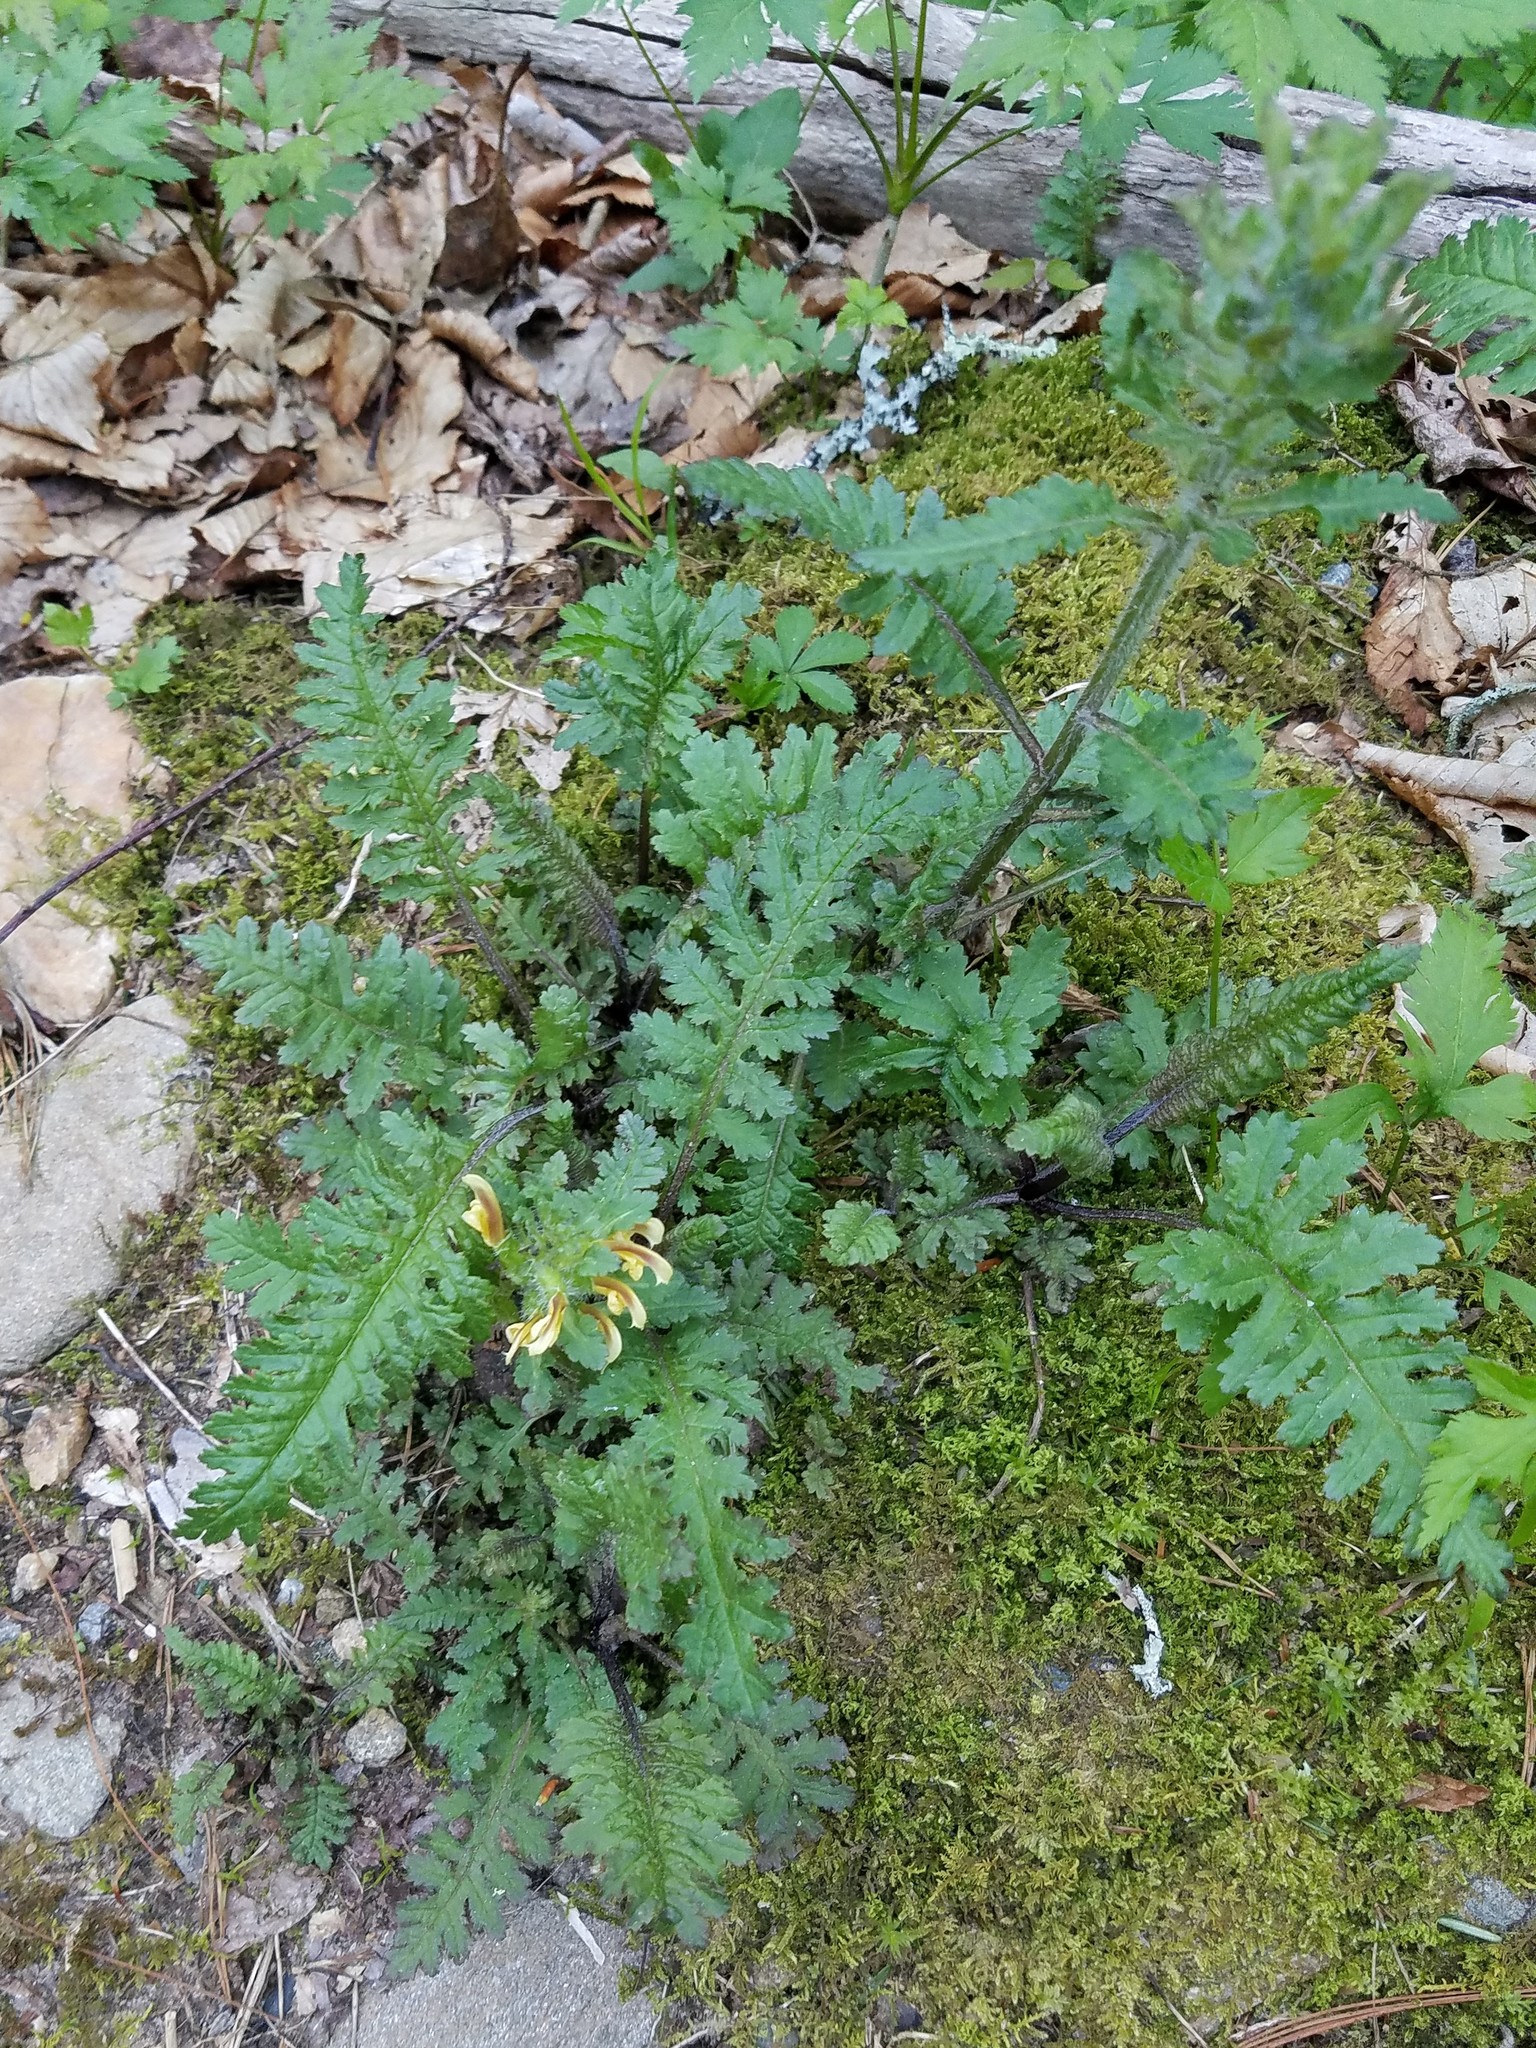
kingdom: Plantae
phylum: Tracheophyta
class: Magnoliopsida
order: Lamiales
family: Orobanchaceae
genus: Pedicularis
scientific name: Pedicularis canadensis
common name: Early lousewort
